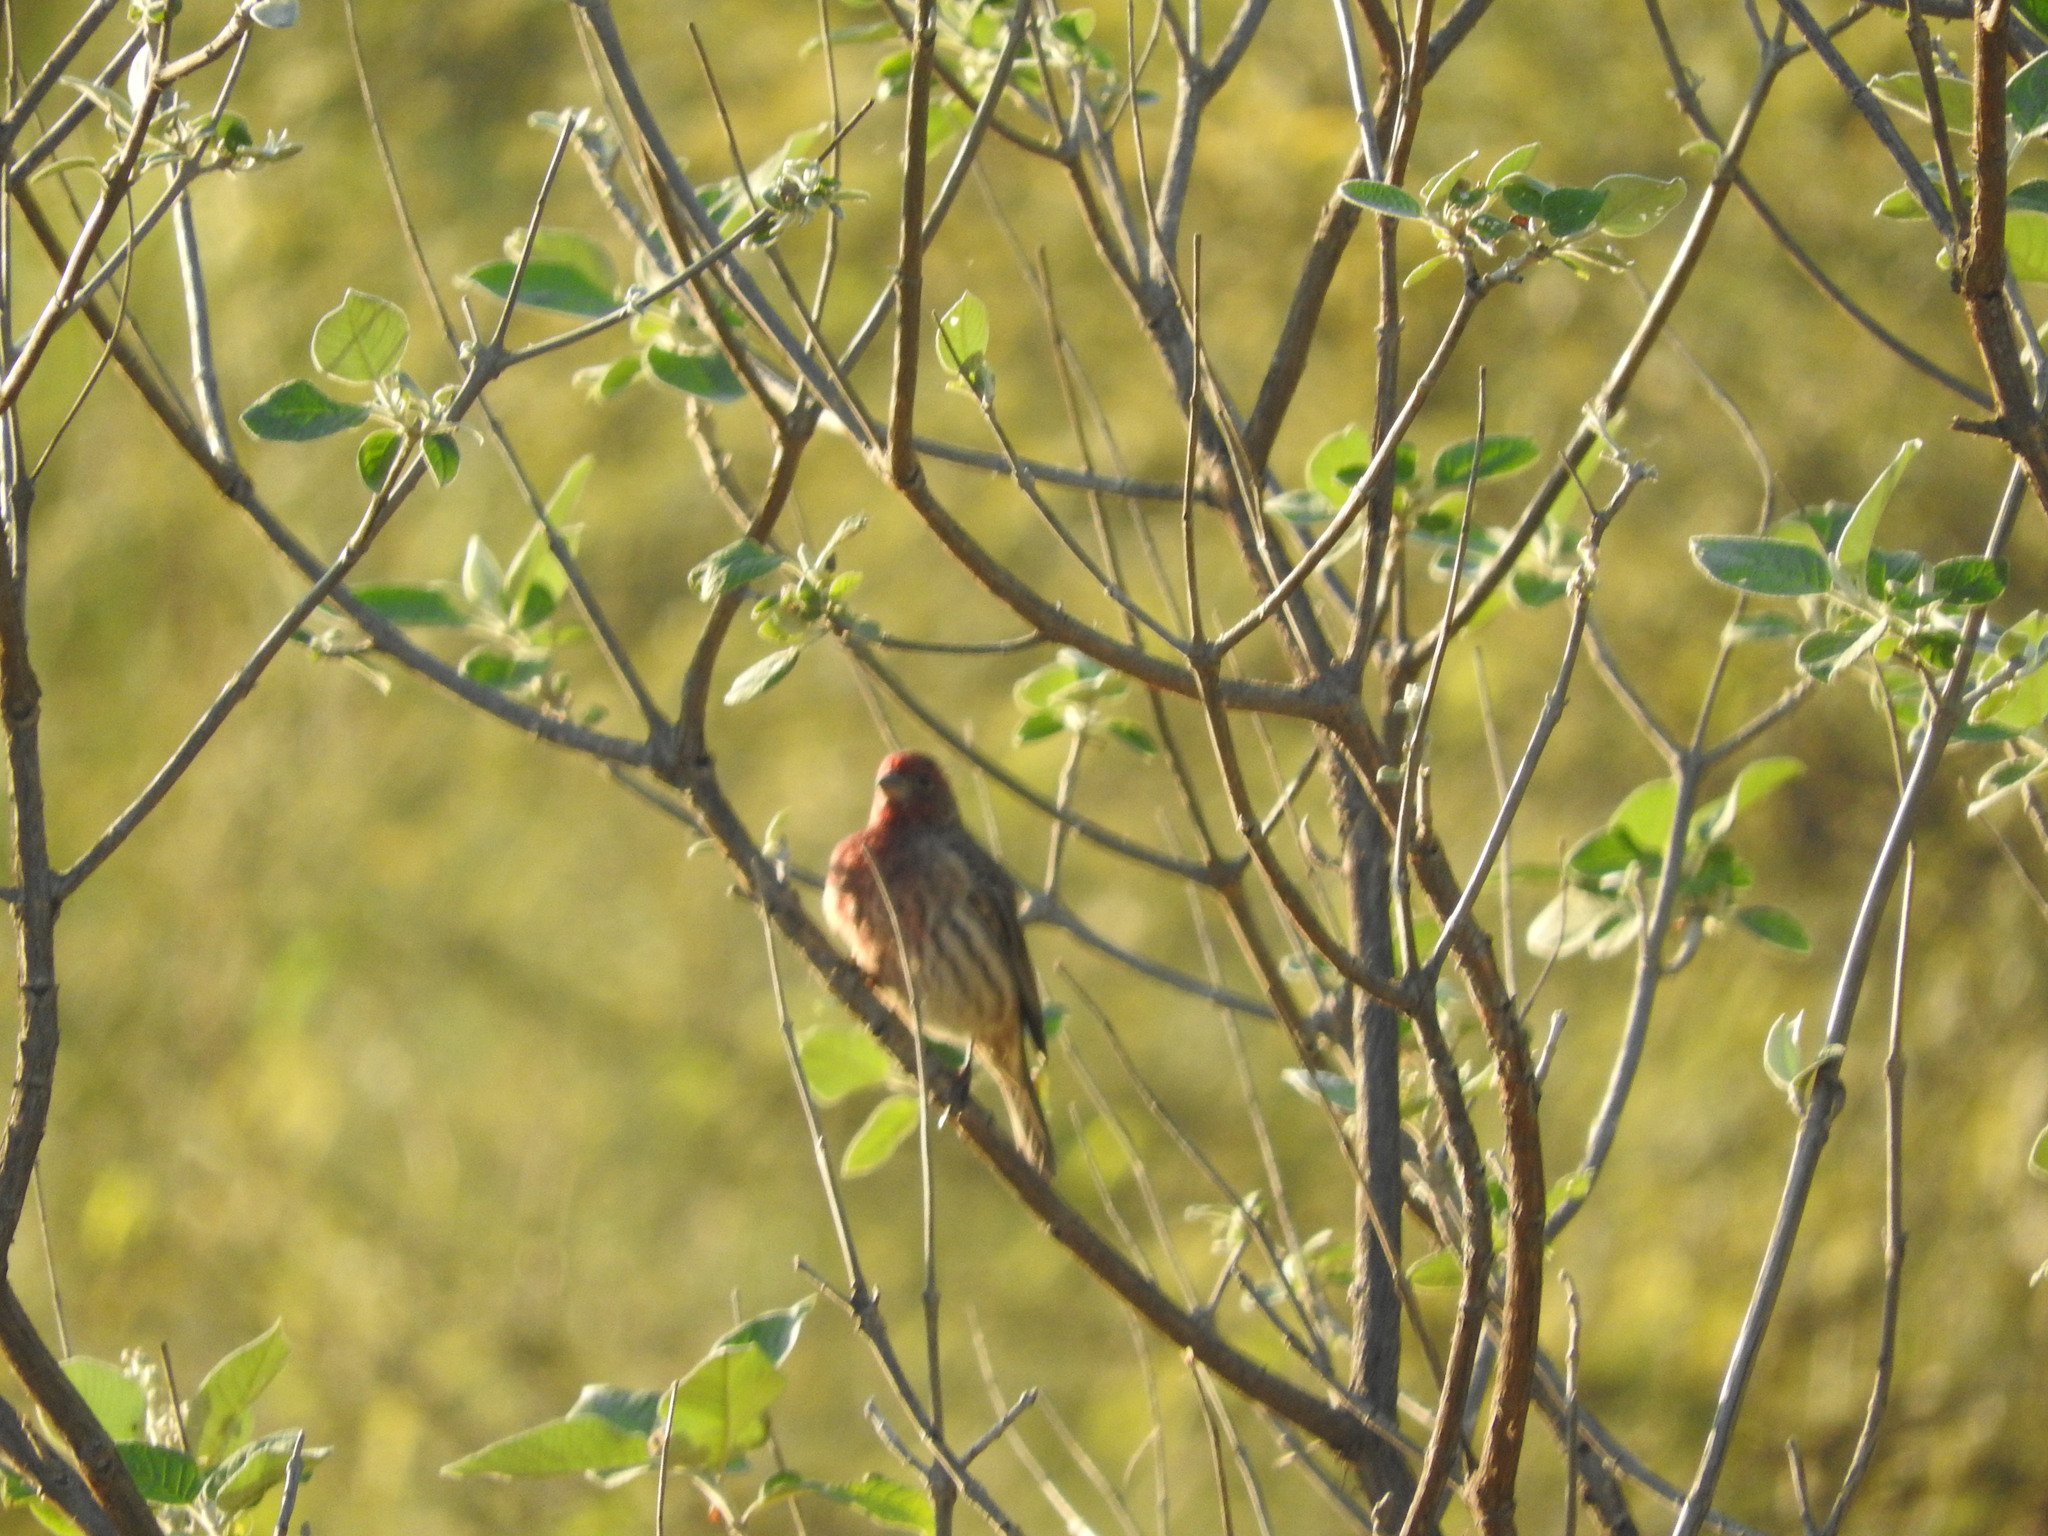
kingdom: Animalia
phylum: Chordata
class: Aves
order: Passeriformes
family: Fringillidae
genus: Haemorhous
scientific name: Haemorhous mexicanus
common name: House finch
